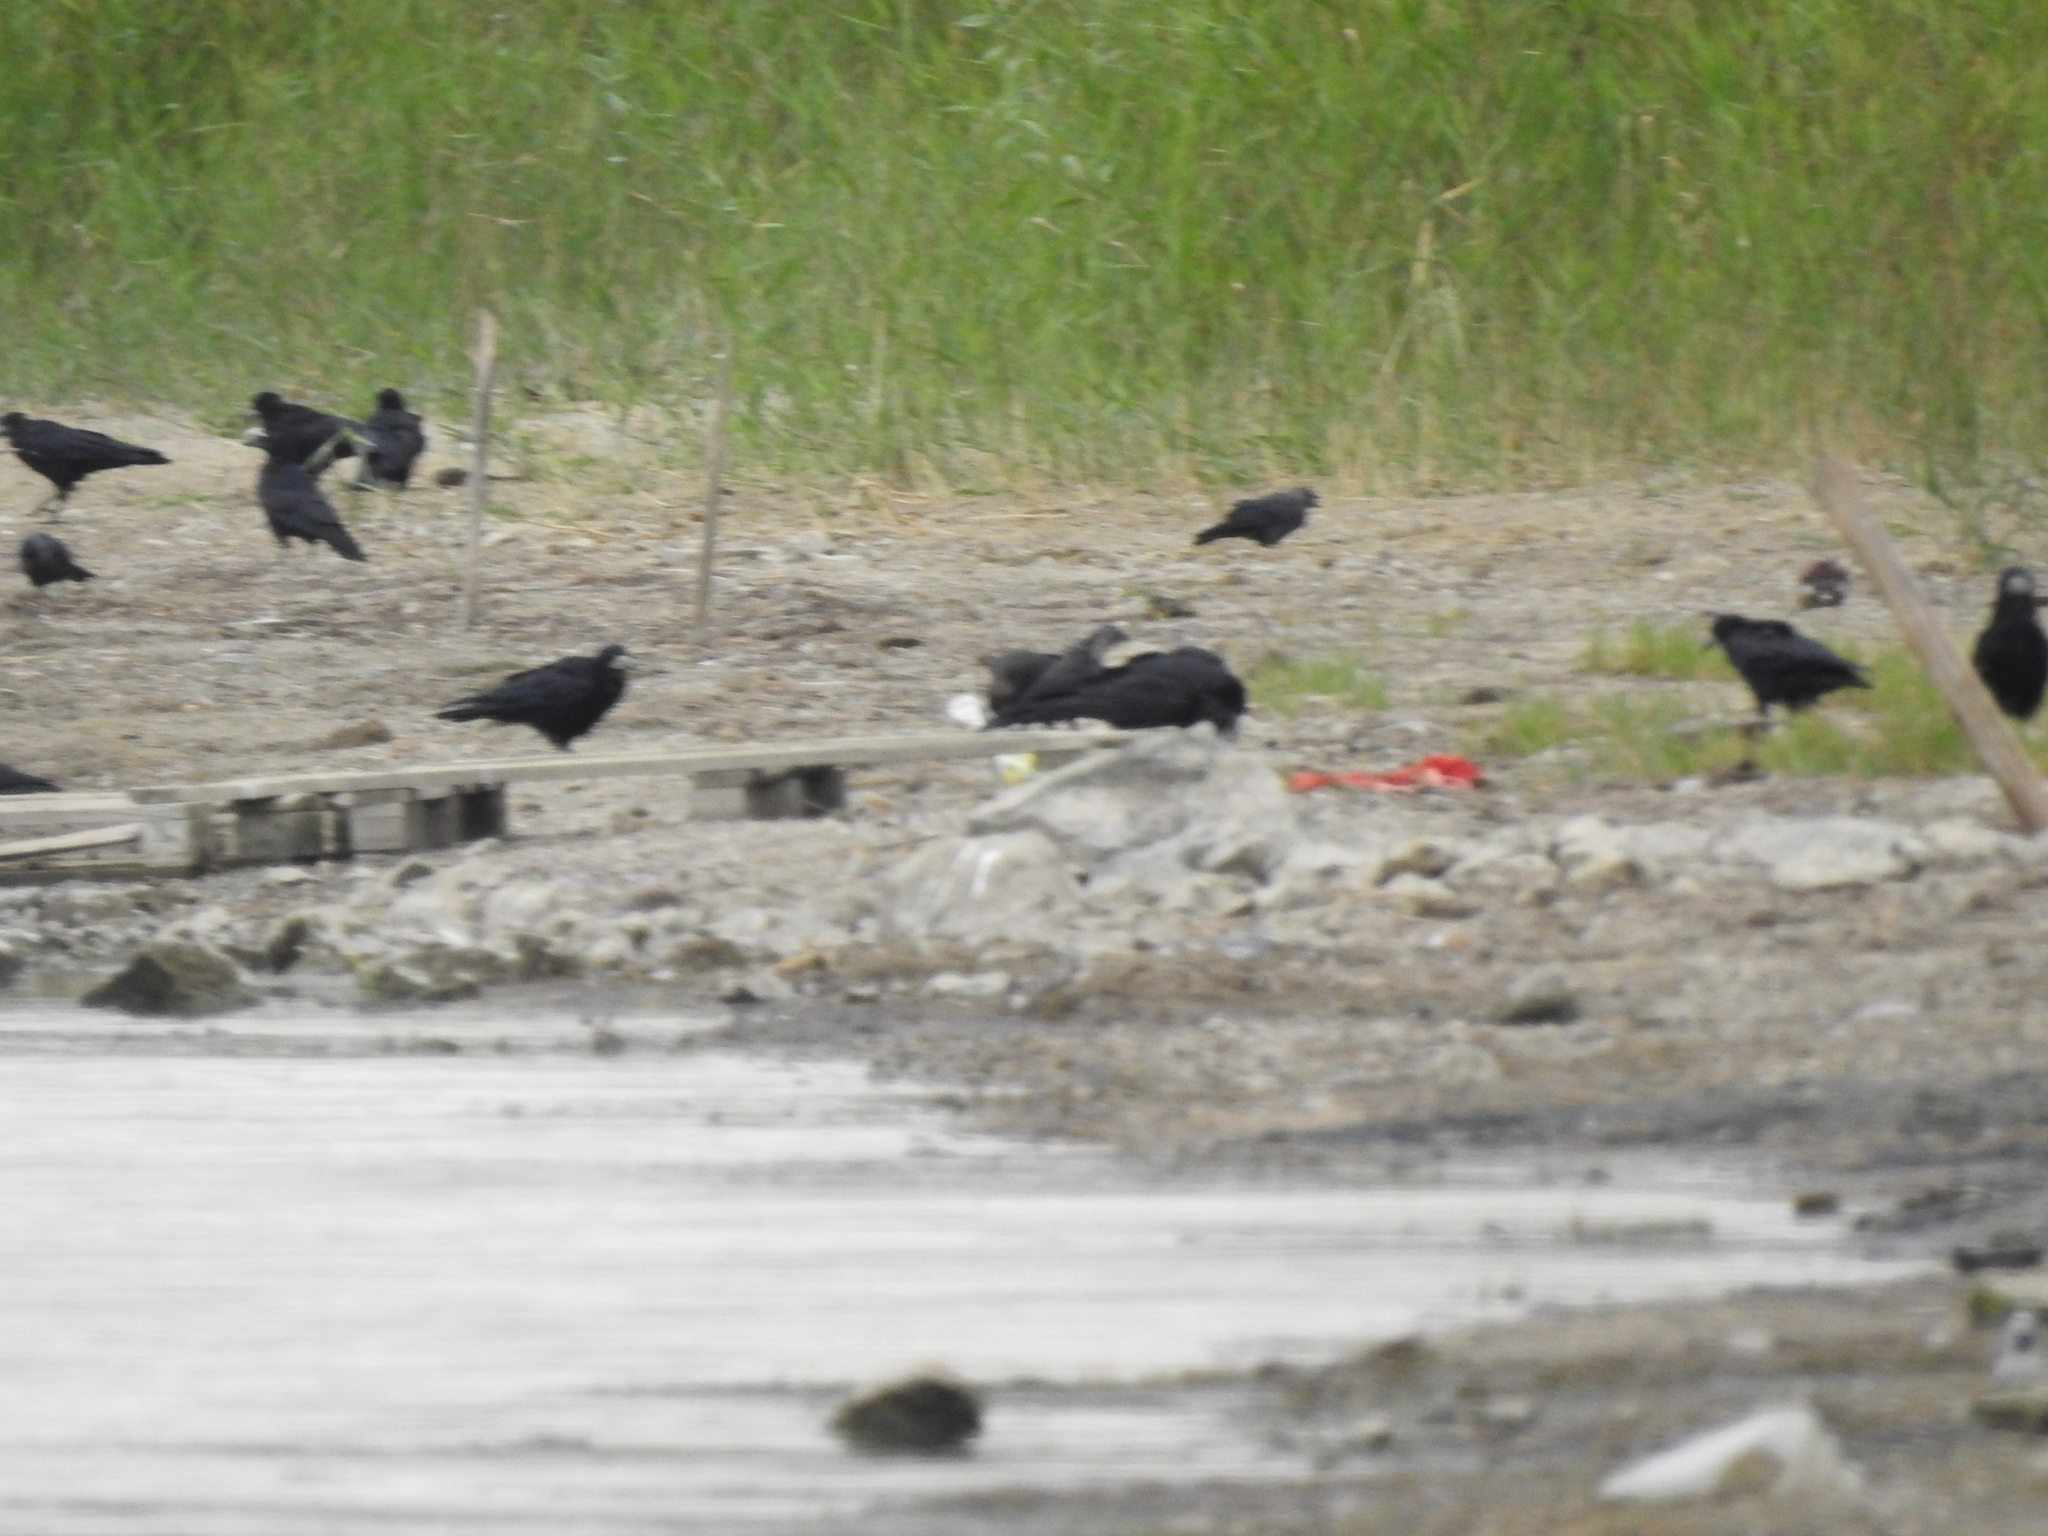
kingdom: Animalia
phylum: Chordata
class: Aves
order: Passeriformes
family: Corvidae
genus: Corvus
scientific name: Corvus frugilegus
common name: Rook
